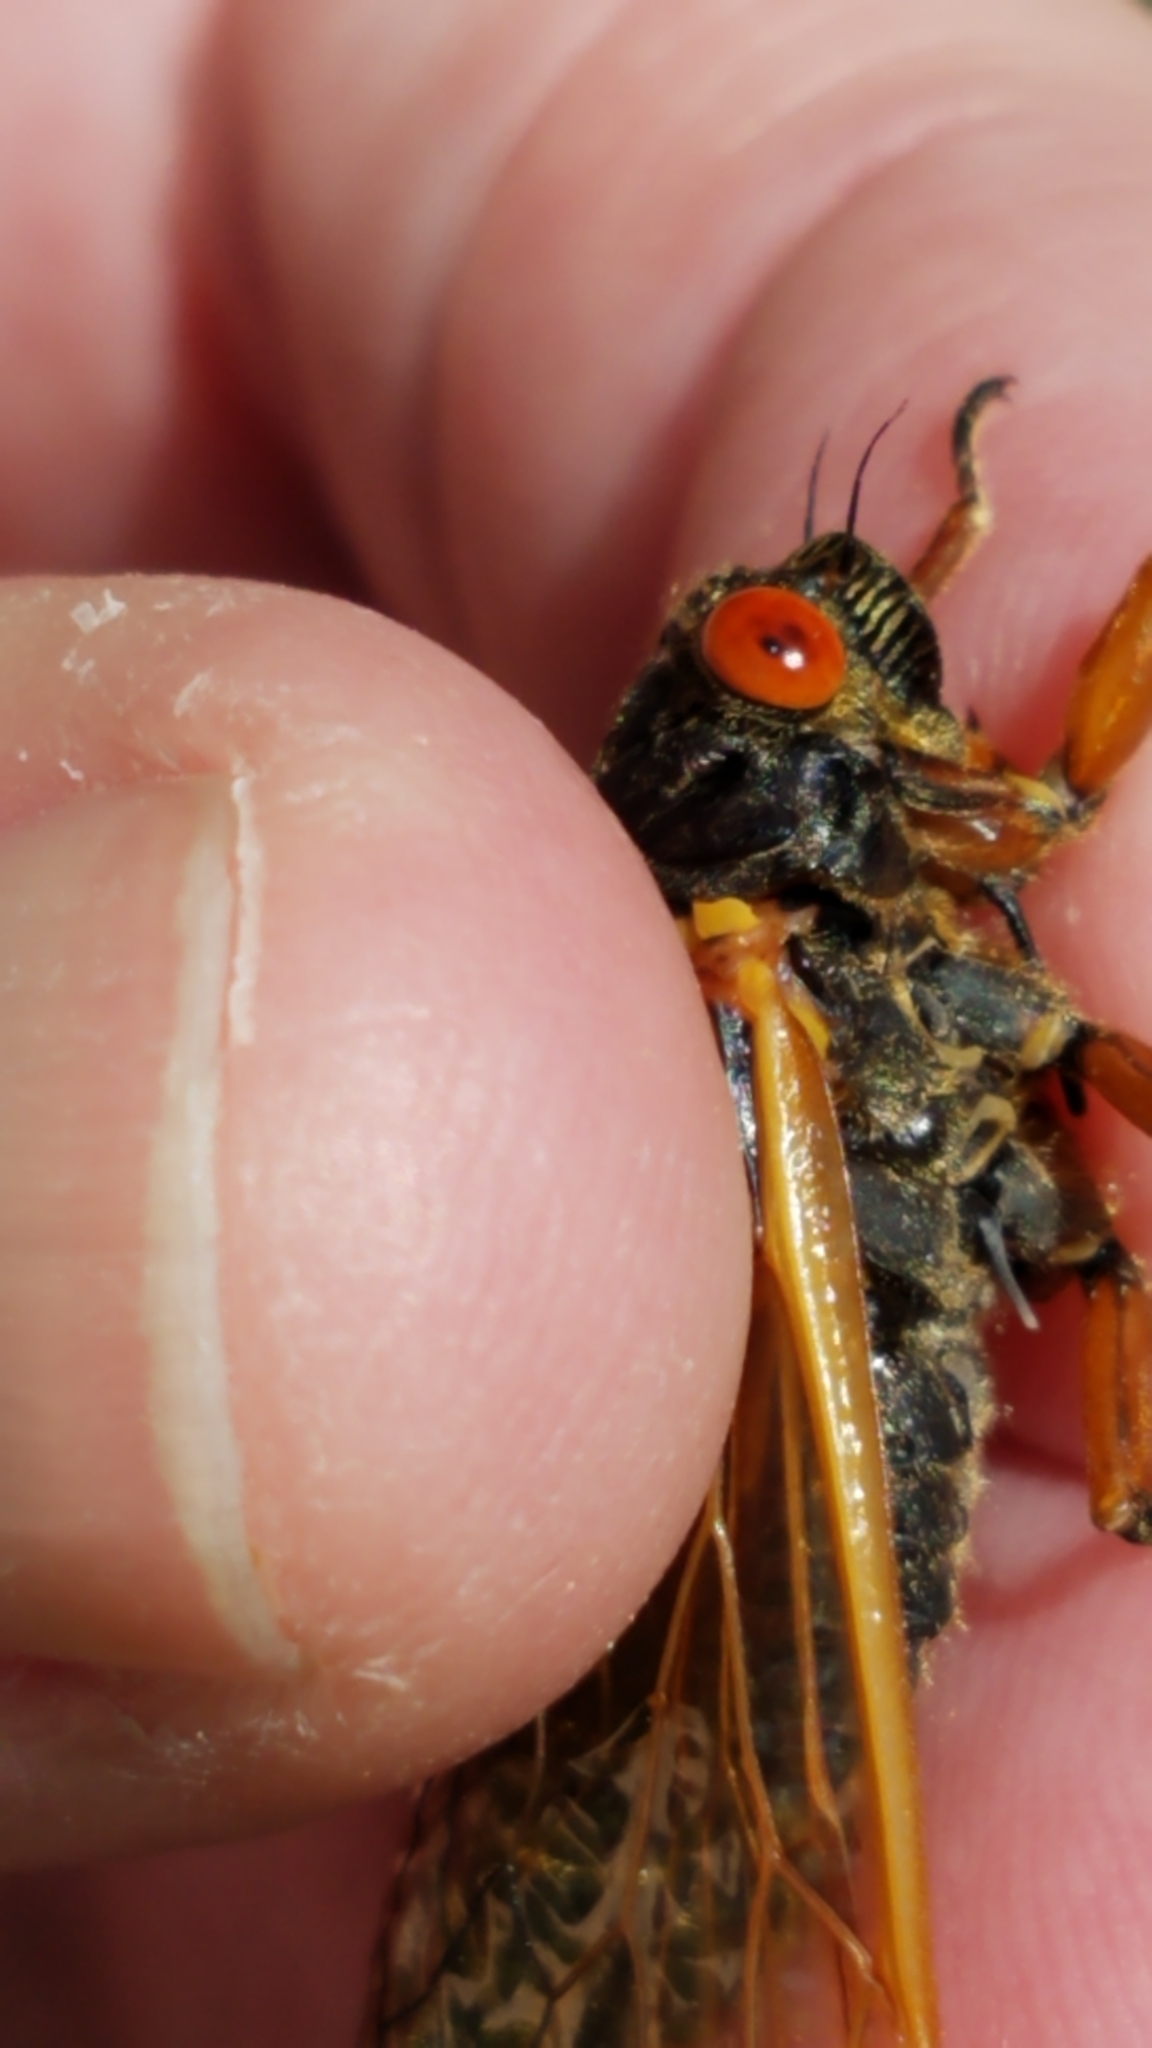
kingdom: Animalia
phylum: Arthropoda
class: Insecta
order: Hemiptera
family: Cicadidae
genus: Magicicada
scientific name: Magicicada cassini
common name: Cassin's 17-year cicada
